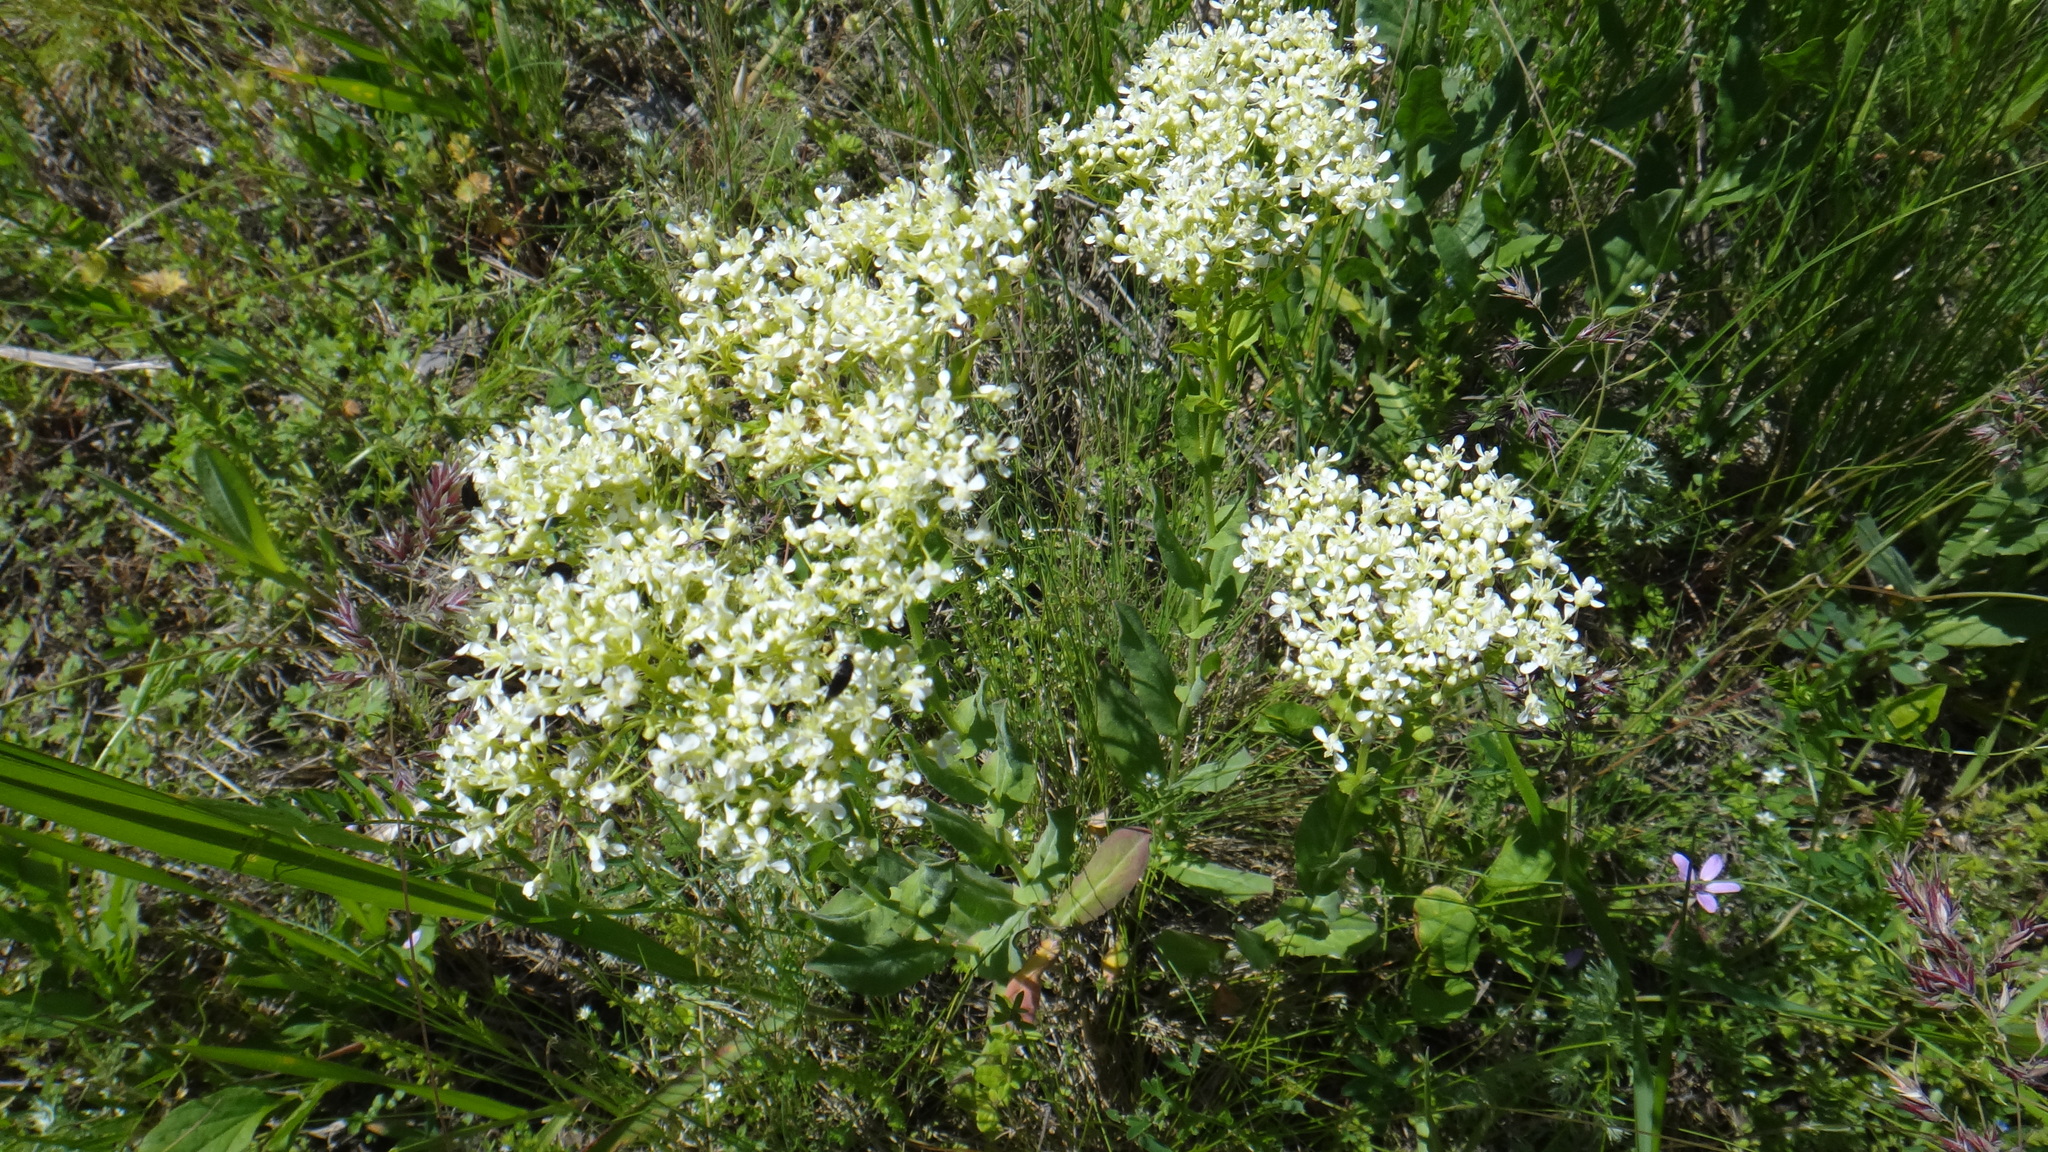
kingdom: Plantae
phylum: Tracheophyta
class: Magnoliopsida
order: Brassicales
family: Brassicaceae
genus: Lepidium
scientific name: Lepidium draba
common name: Hoary cress
